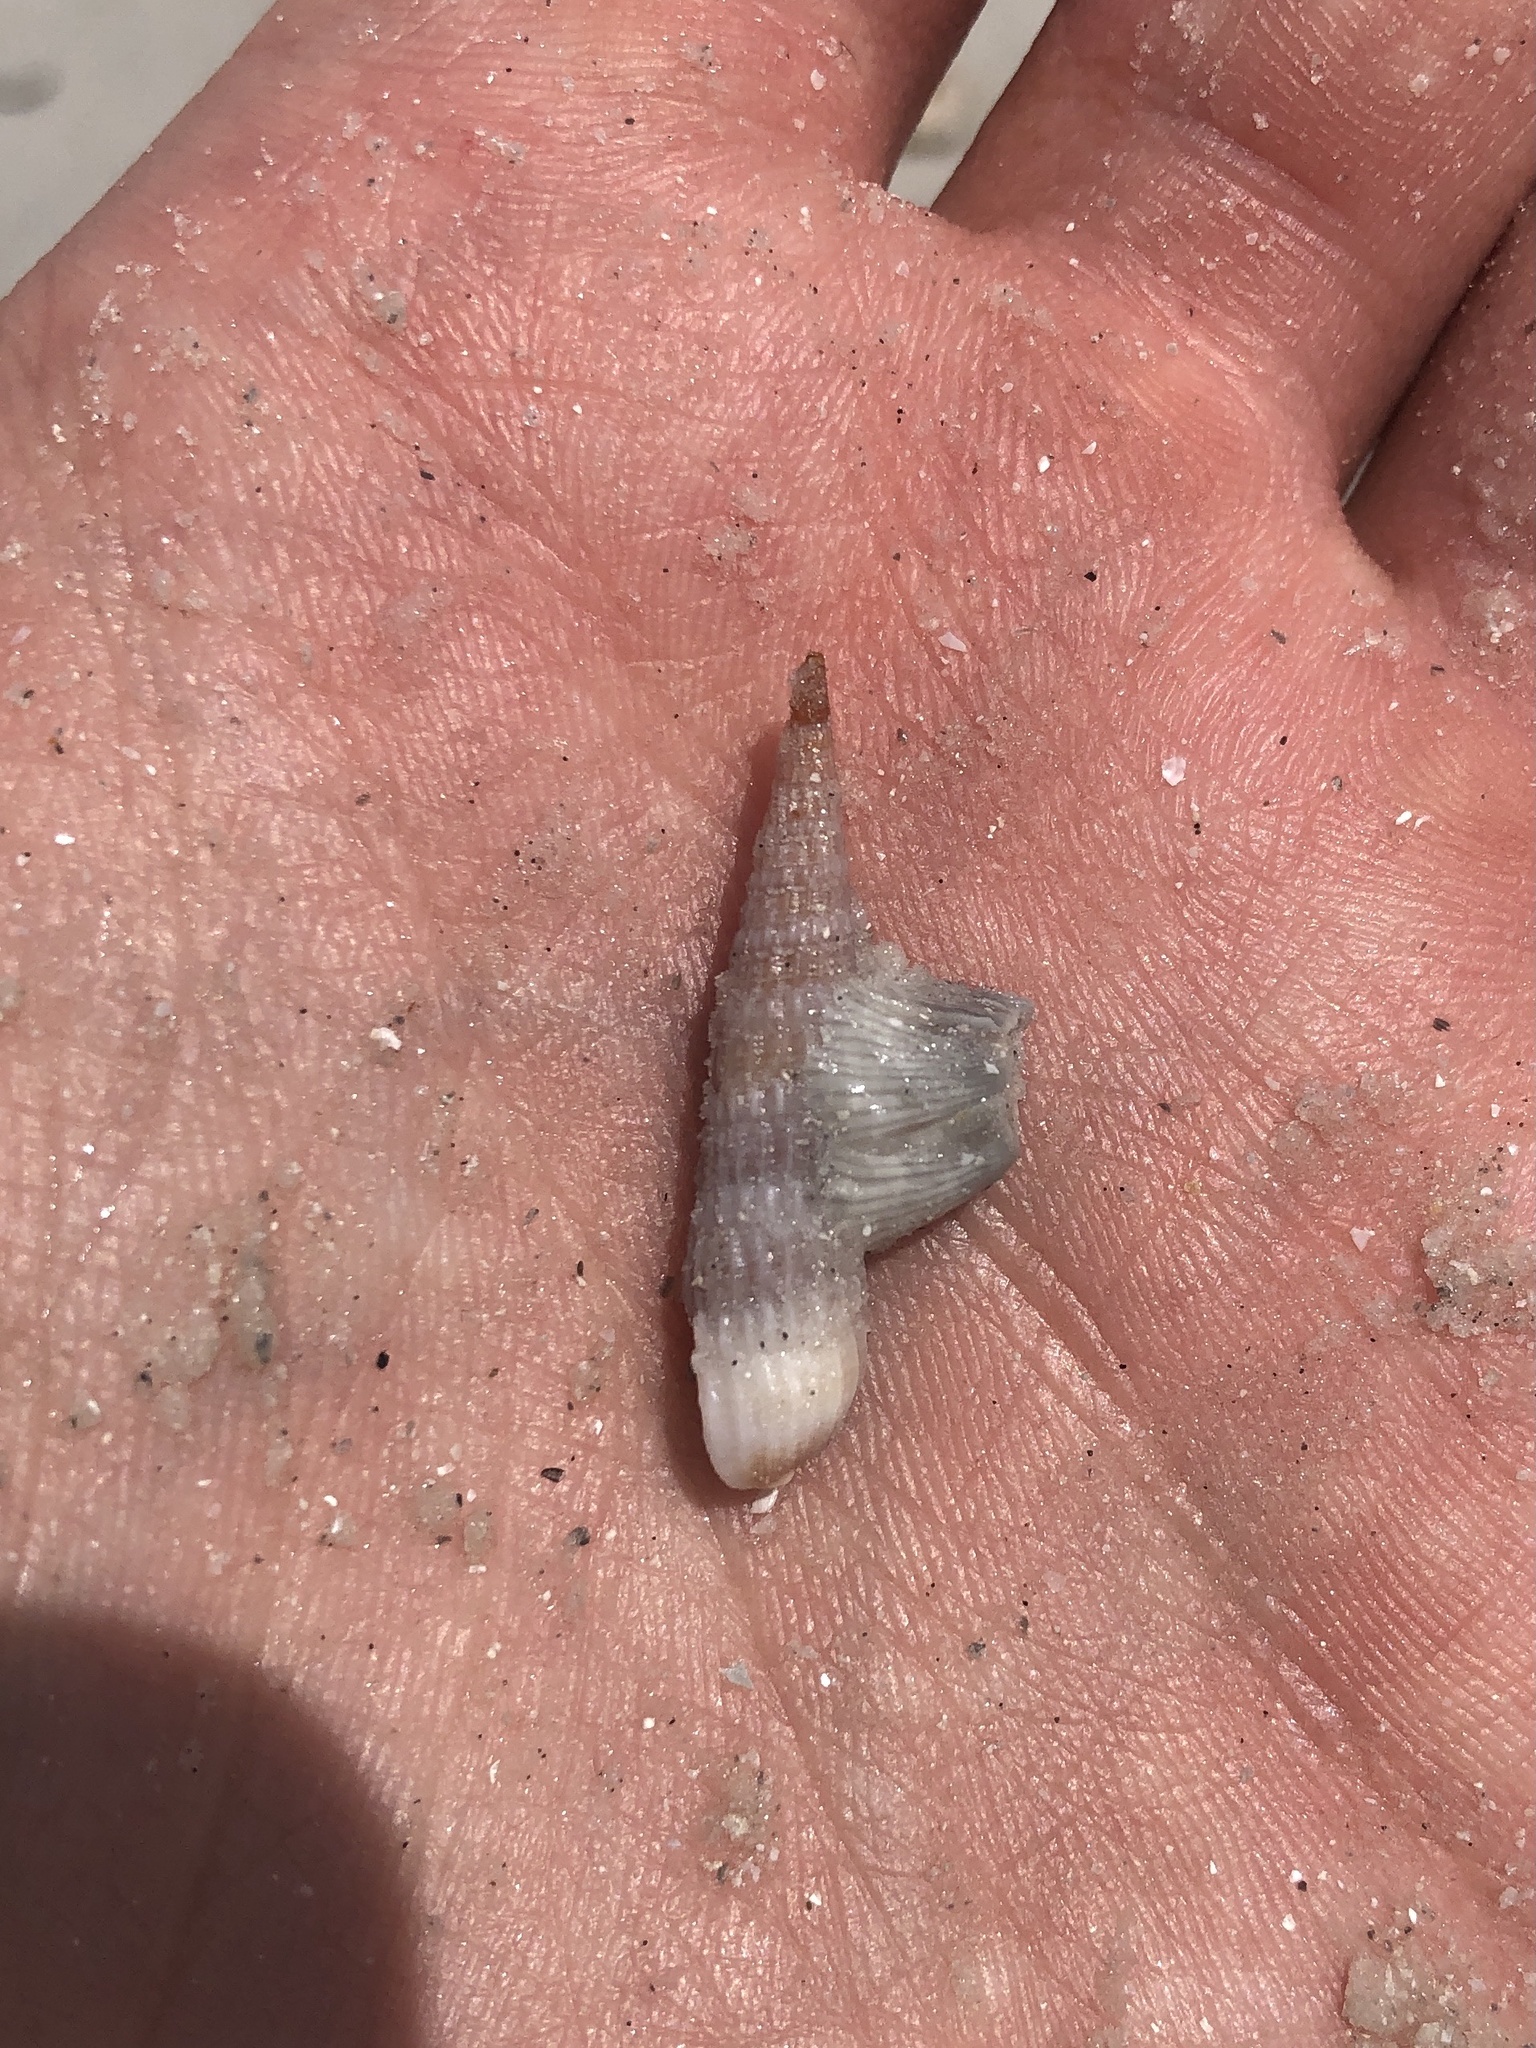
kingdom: Animalia
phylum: Mollusca
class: Gastropoda
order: Neogastropoda
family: Terebridae
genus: Neoterebra
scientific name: Neoterebra dislocata
